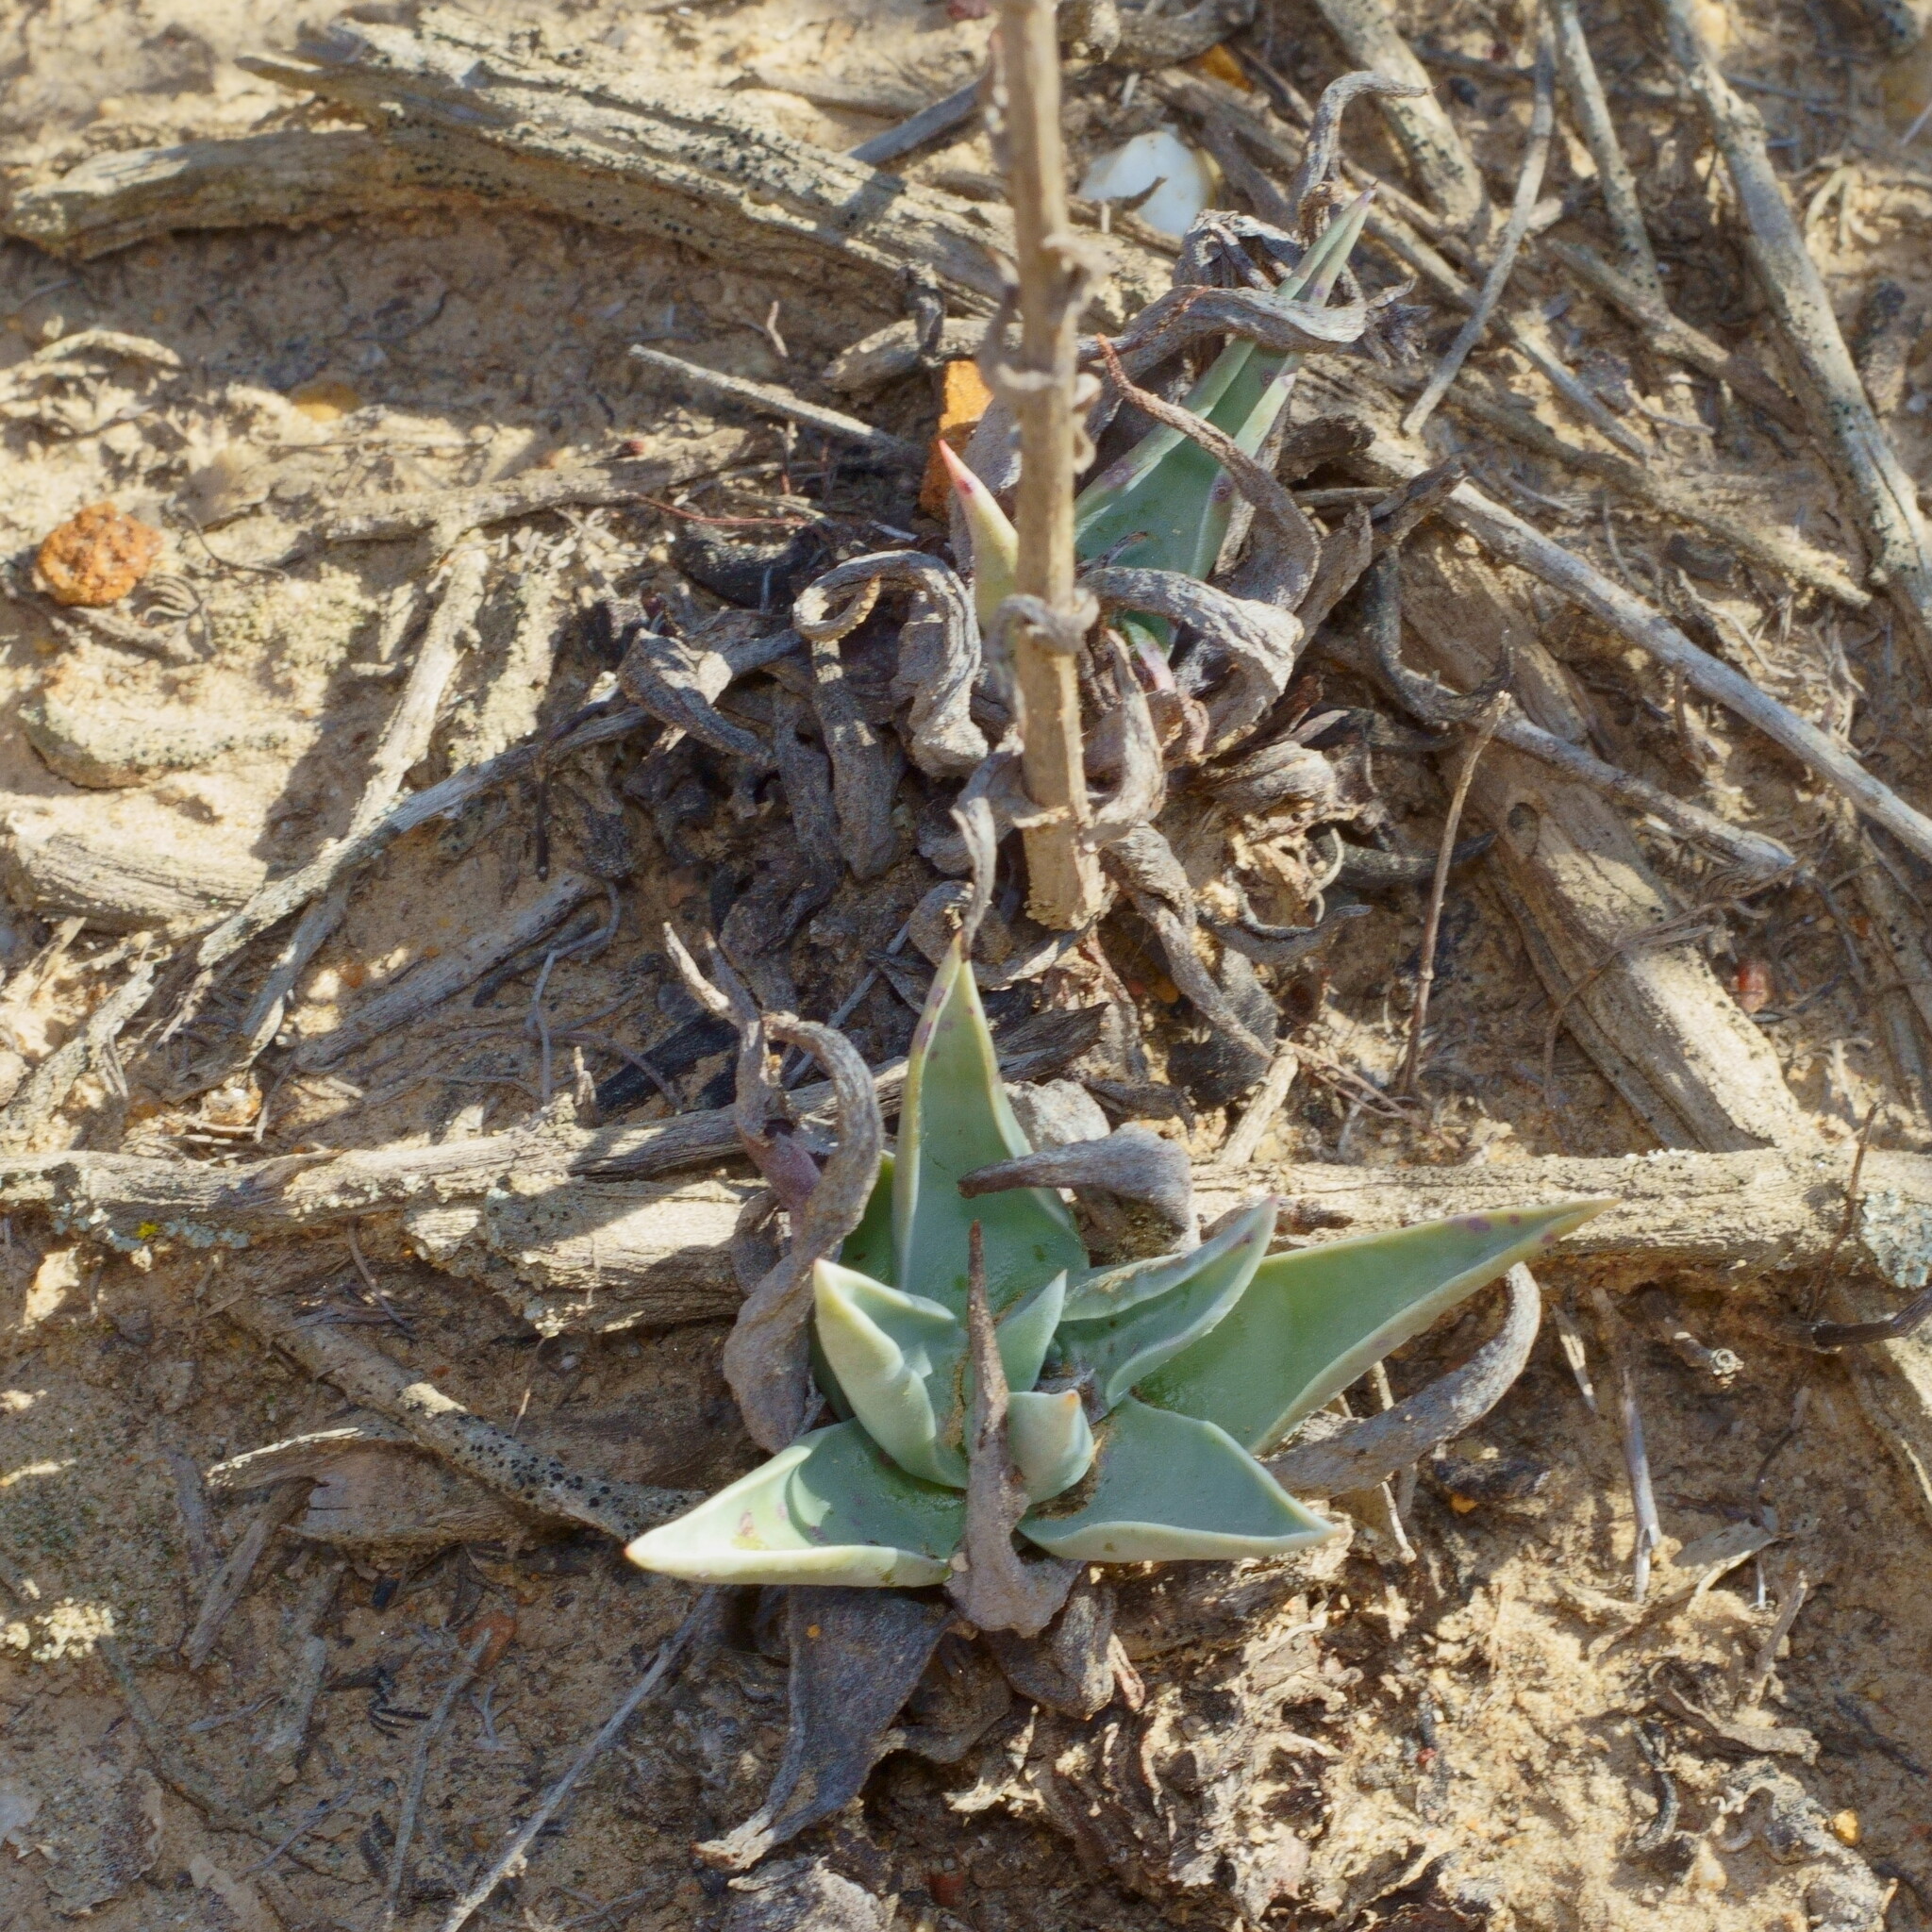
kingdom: Plantae
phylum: Tracheophyta
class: Magnoliopsida
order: Saxifragales
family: Crassulaceae
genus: Dudleya
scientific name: Dudleya lanceolata
